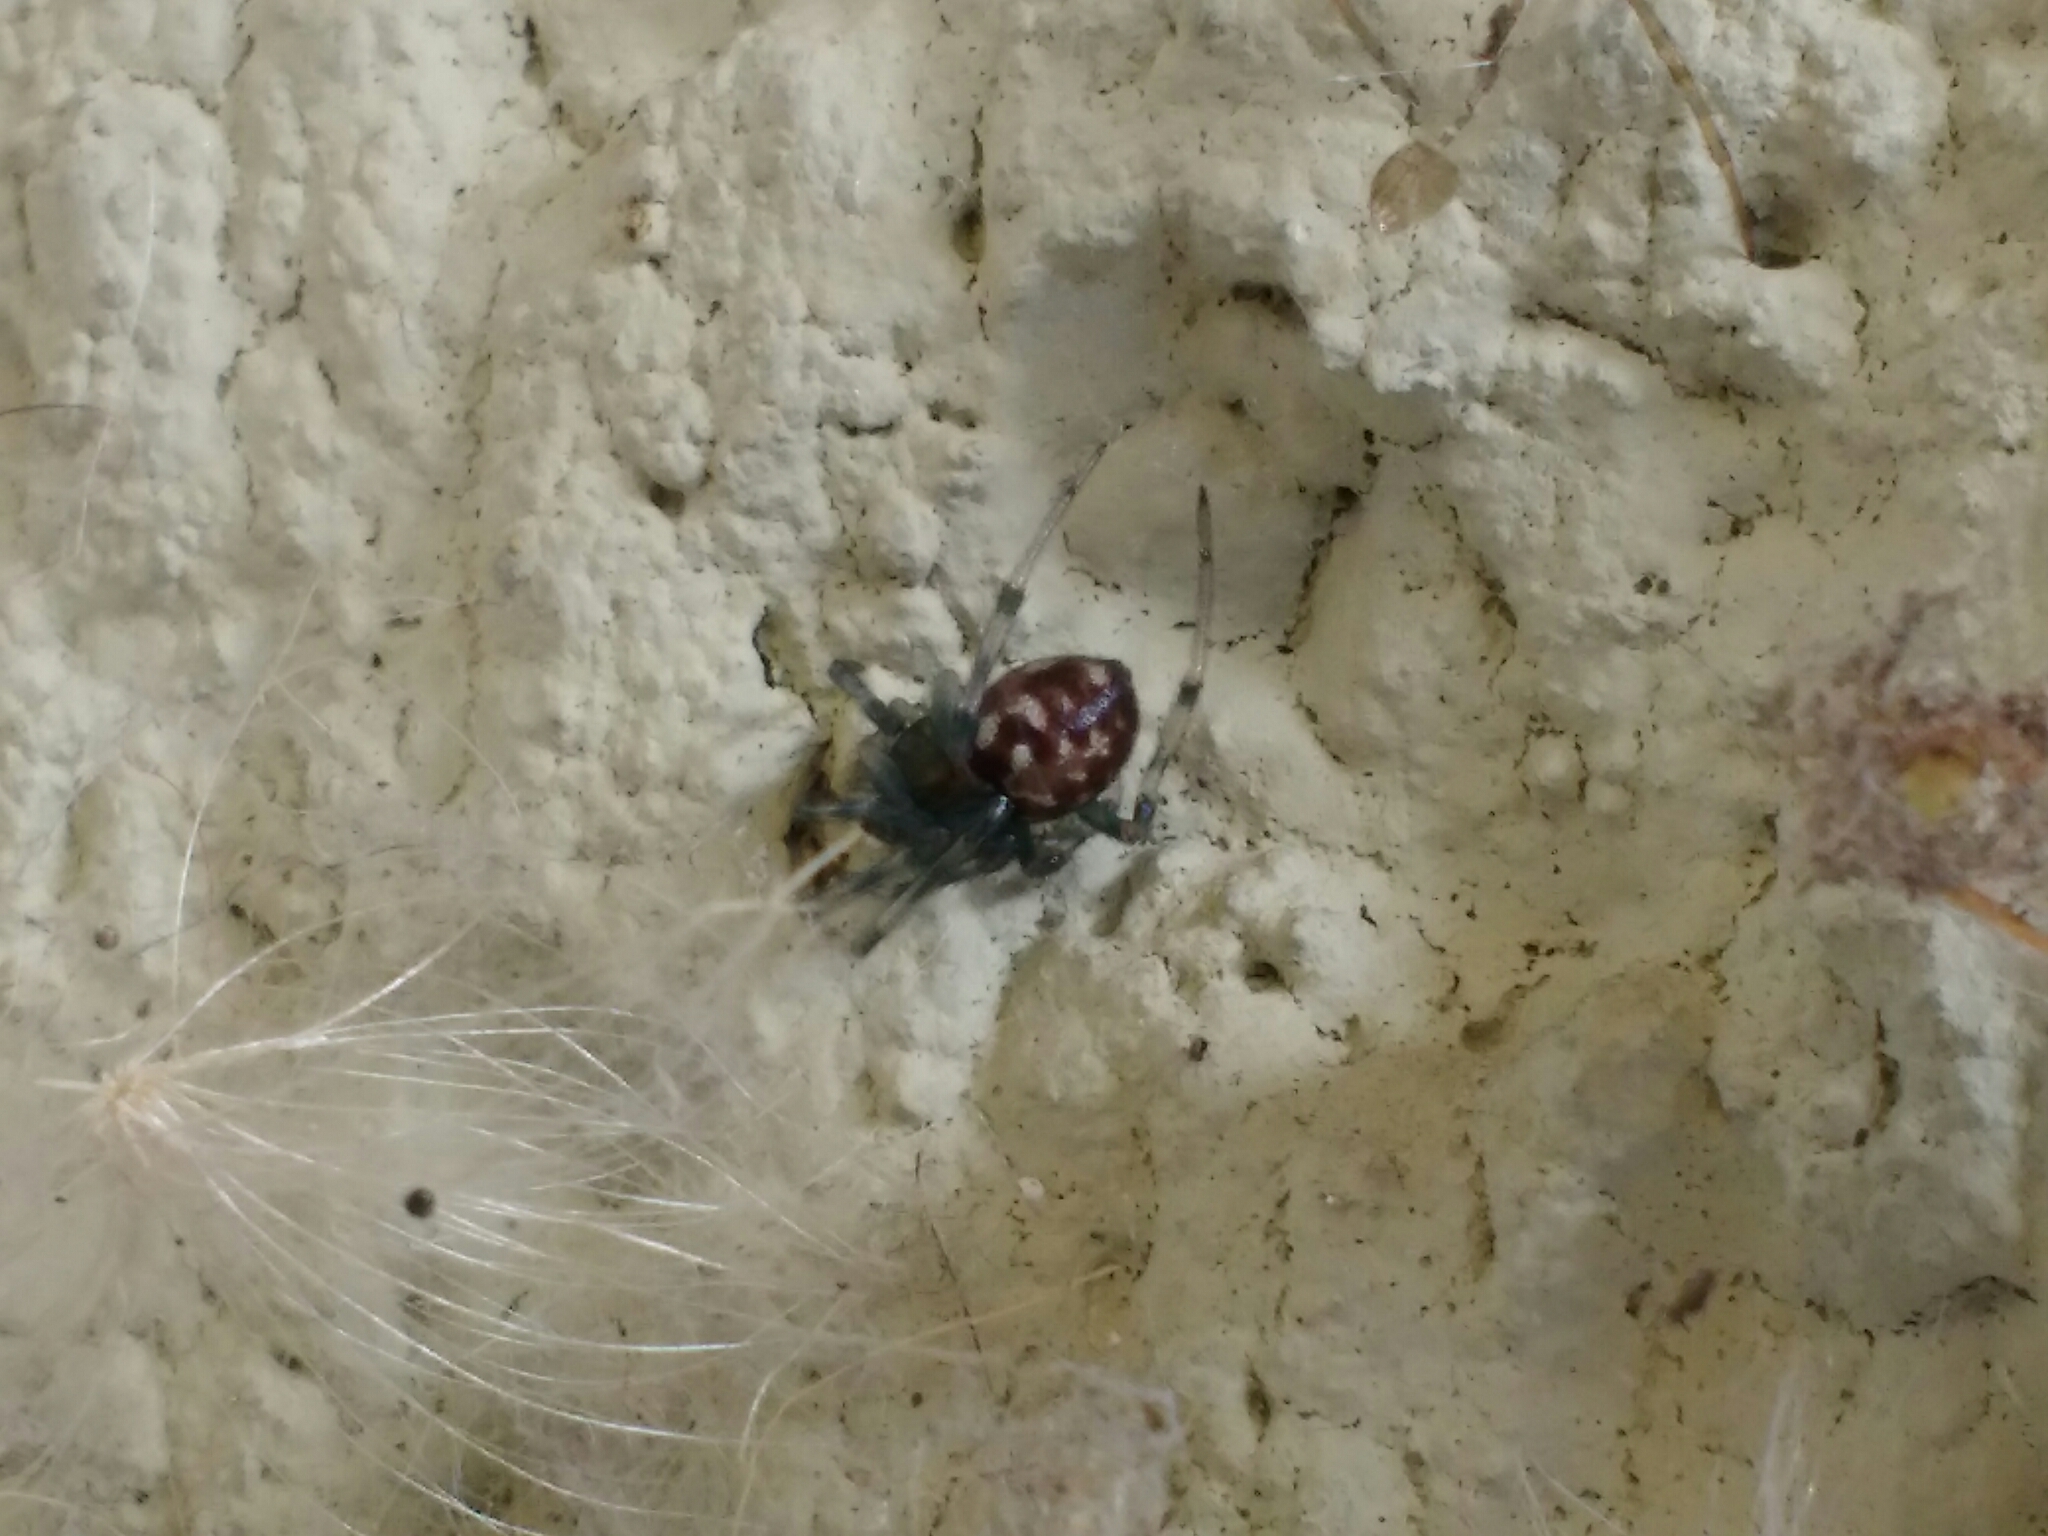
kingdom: Animalia
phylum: Arthropoda
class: Arachnida
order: Araneae
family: Theridiidae
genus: Steatoda
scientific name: Steatoda triangulosa
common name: Triangulate bud spider
